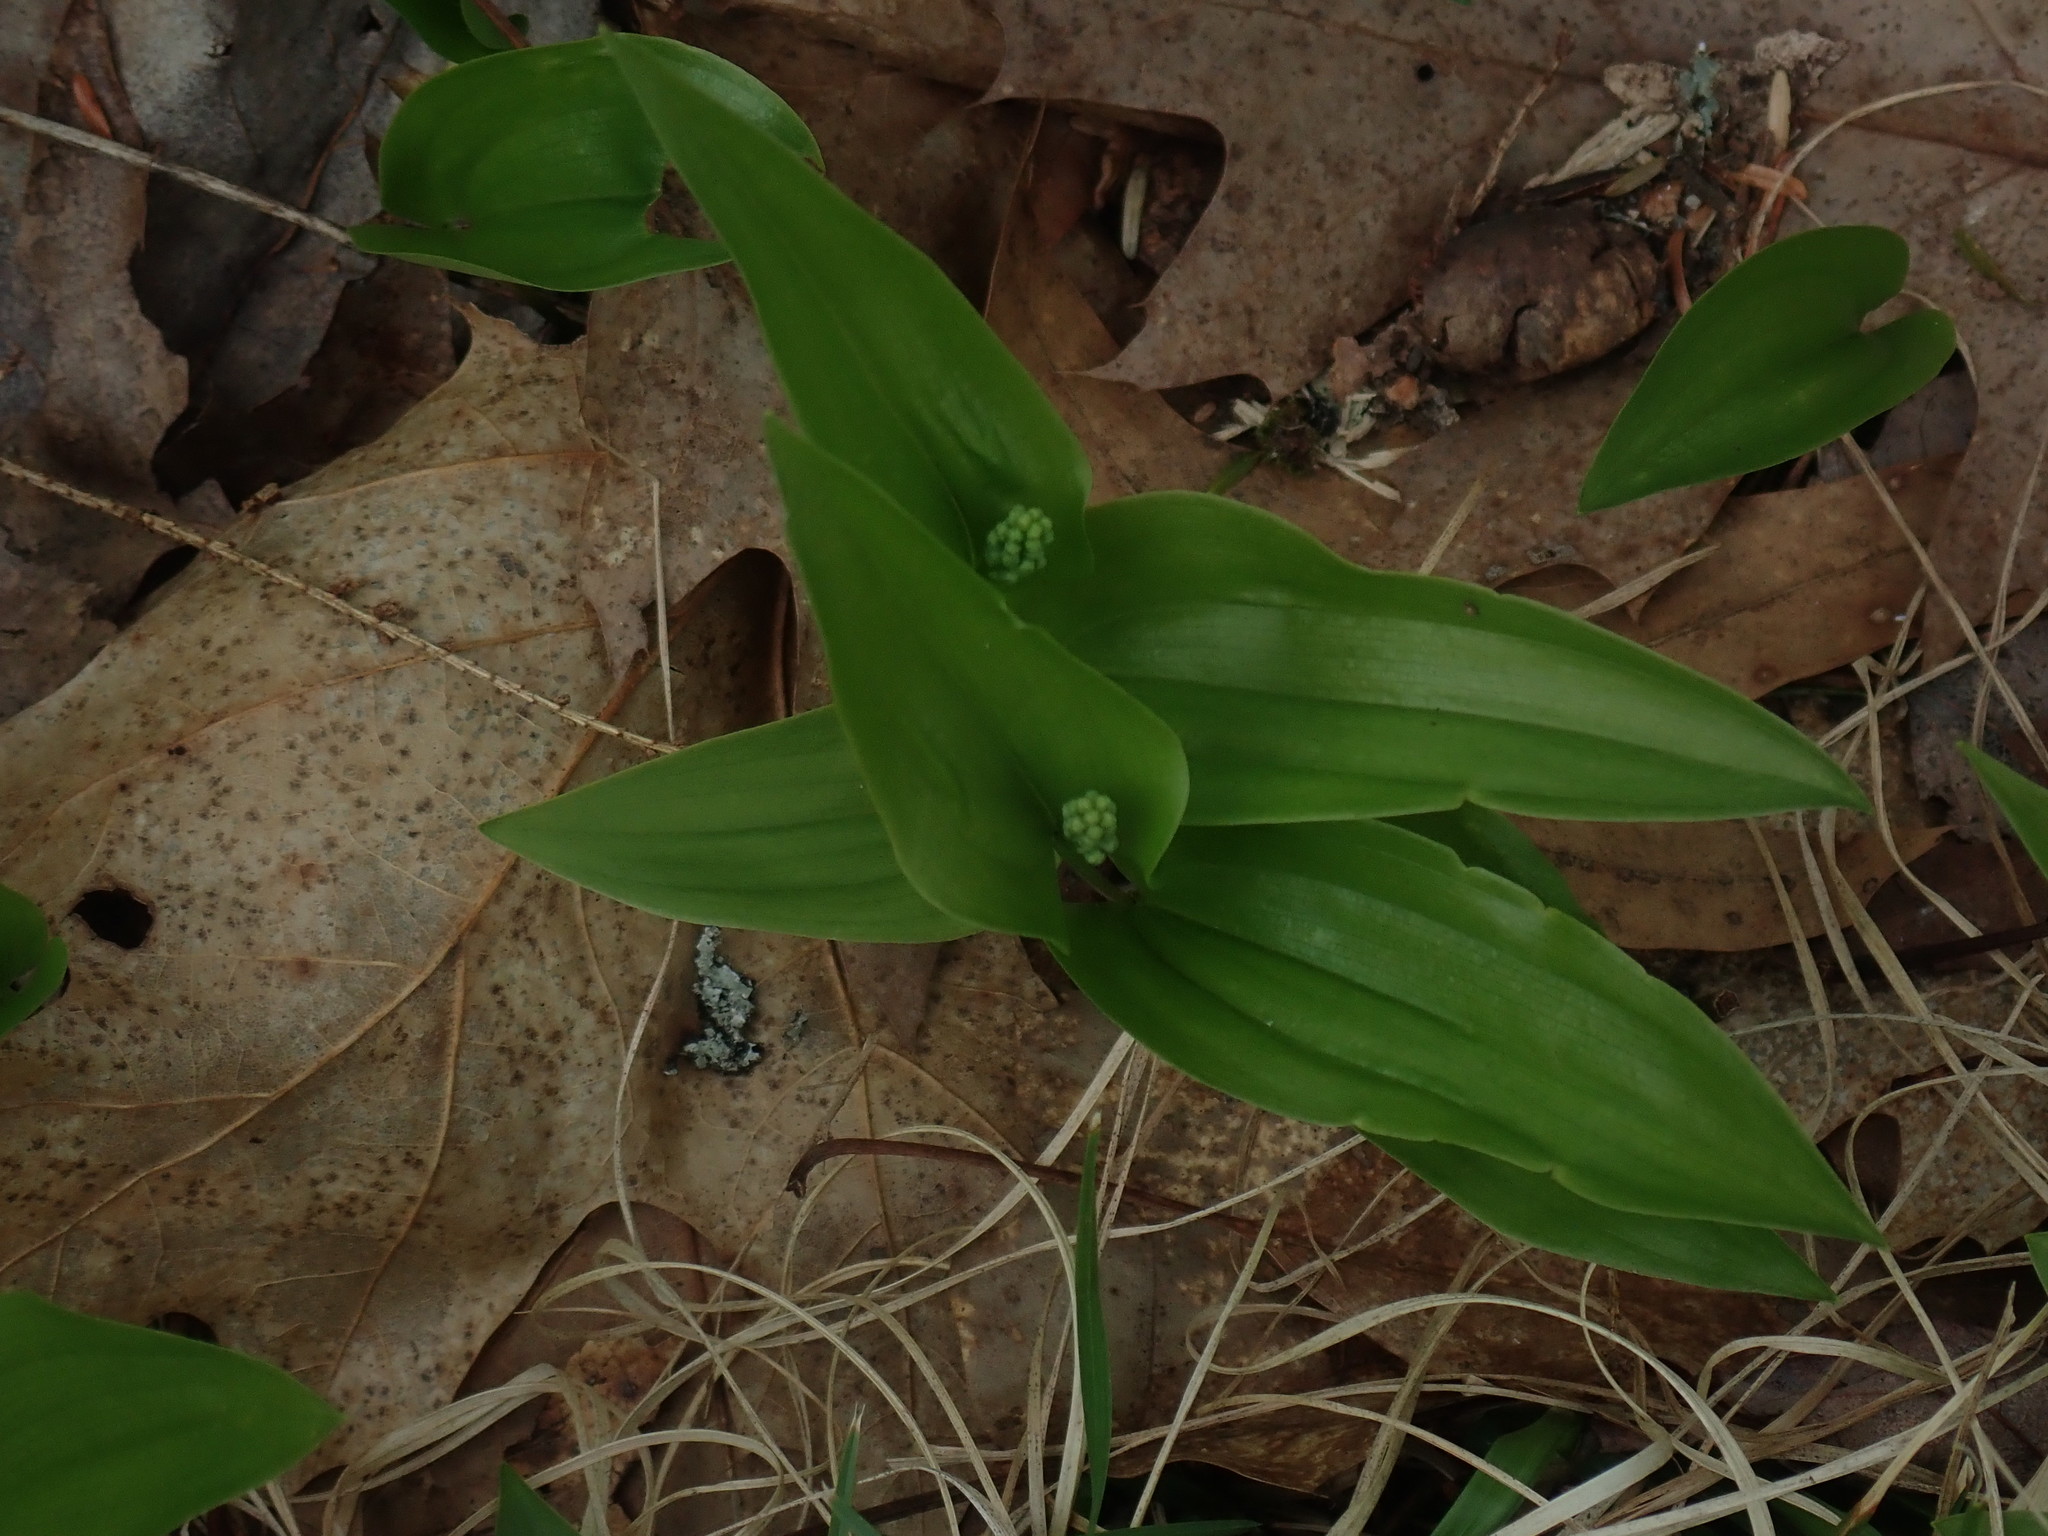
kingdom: Plantae
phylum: Tracheophyta
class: Liliopsida
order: Asparagales
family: Asparagaceae
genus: Maianthemum
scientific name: Maianthemum canadense
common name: False lily-of-the-valley
